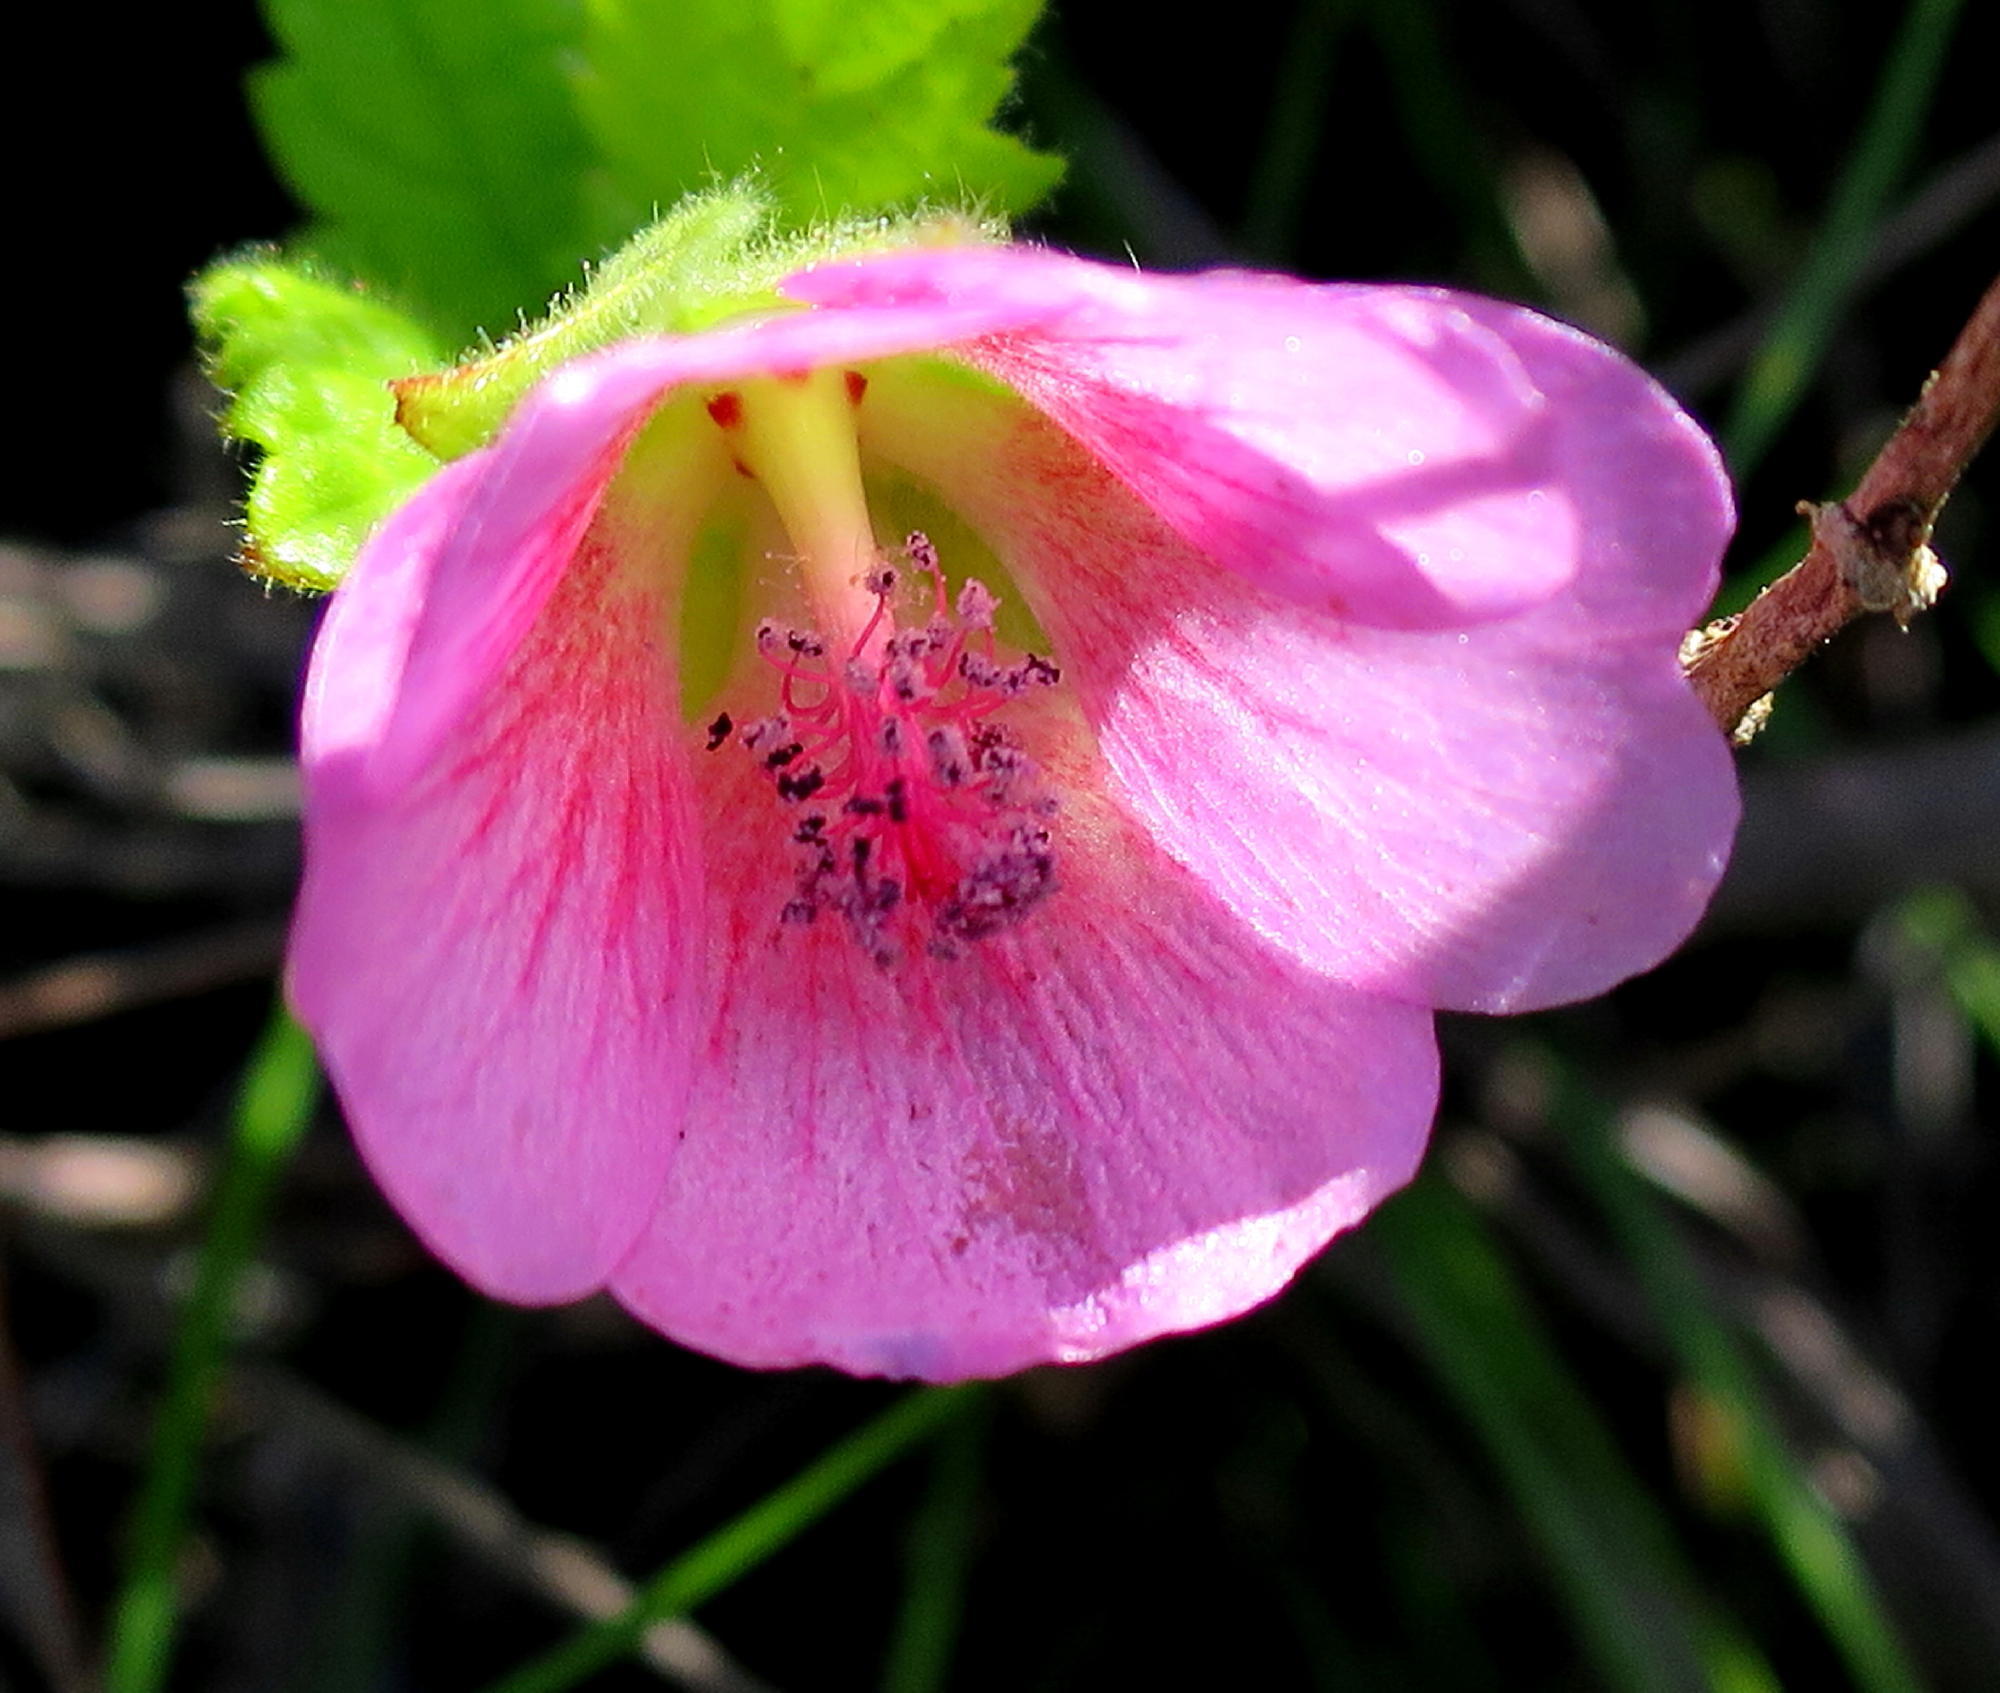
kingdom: Plantae
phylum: Tracheophyta
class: Magnoliopsida
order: Malvales
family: Malvaceae
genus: Anisodontea
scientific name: Anisodontea scabrosa
